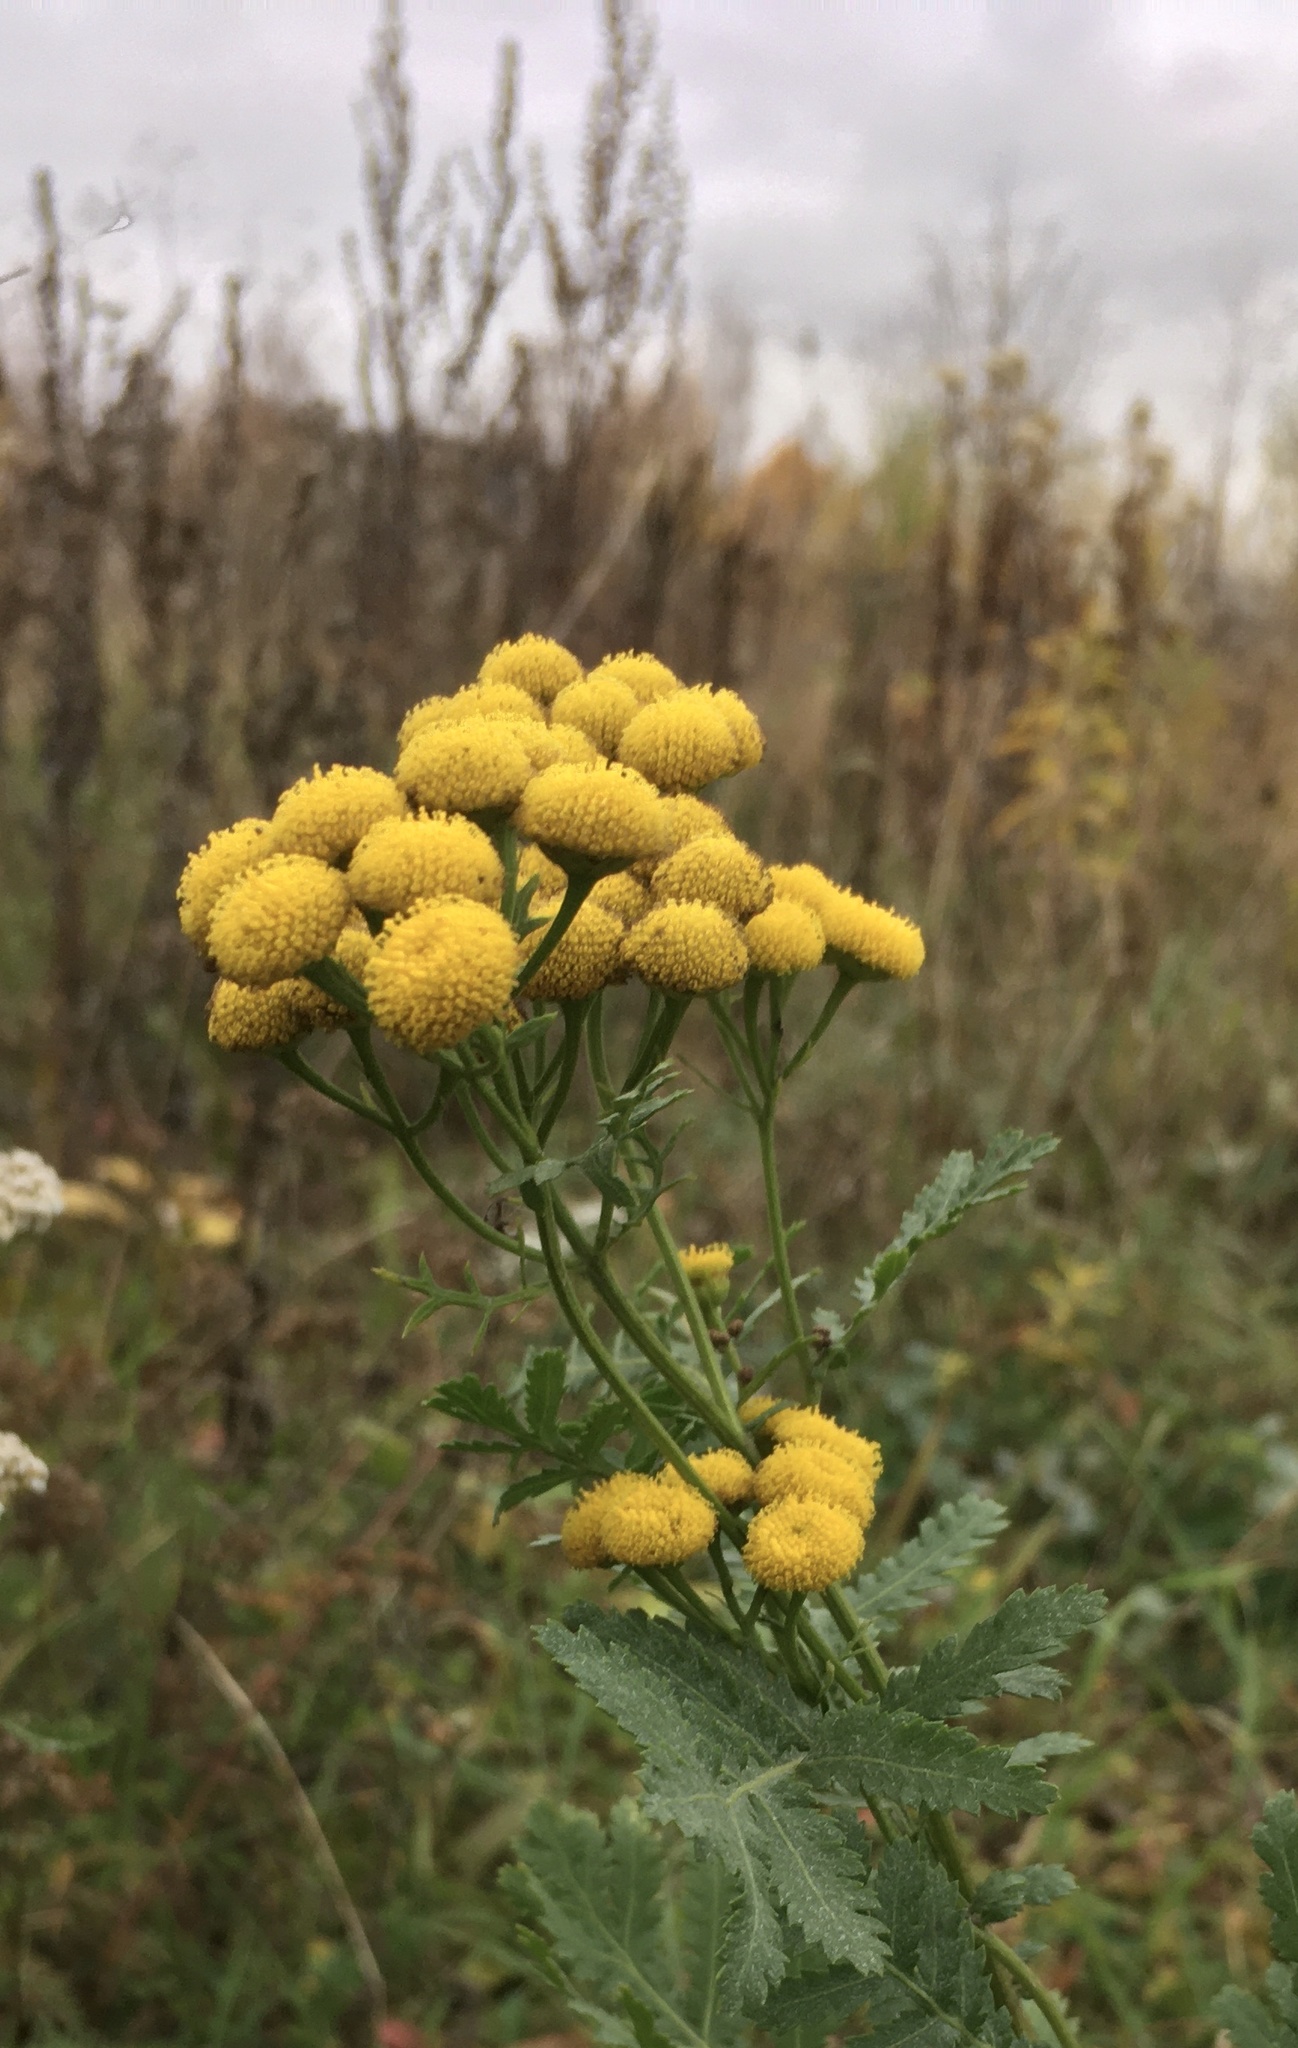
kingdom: Plantae
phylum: Tracheophyta
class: Magnoliopsida
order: Asterales
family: Asteraceae
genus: Tanacetum
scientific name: Tanacetum vulgare
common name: Common tansy
